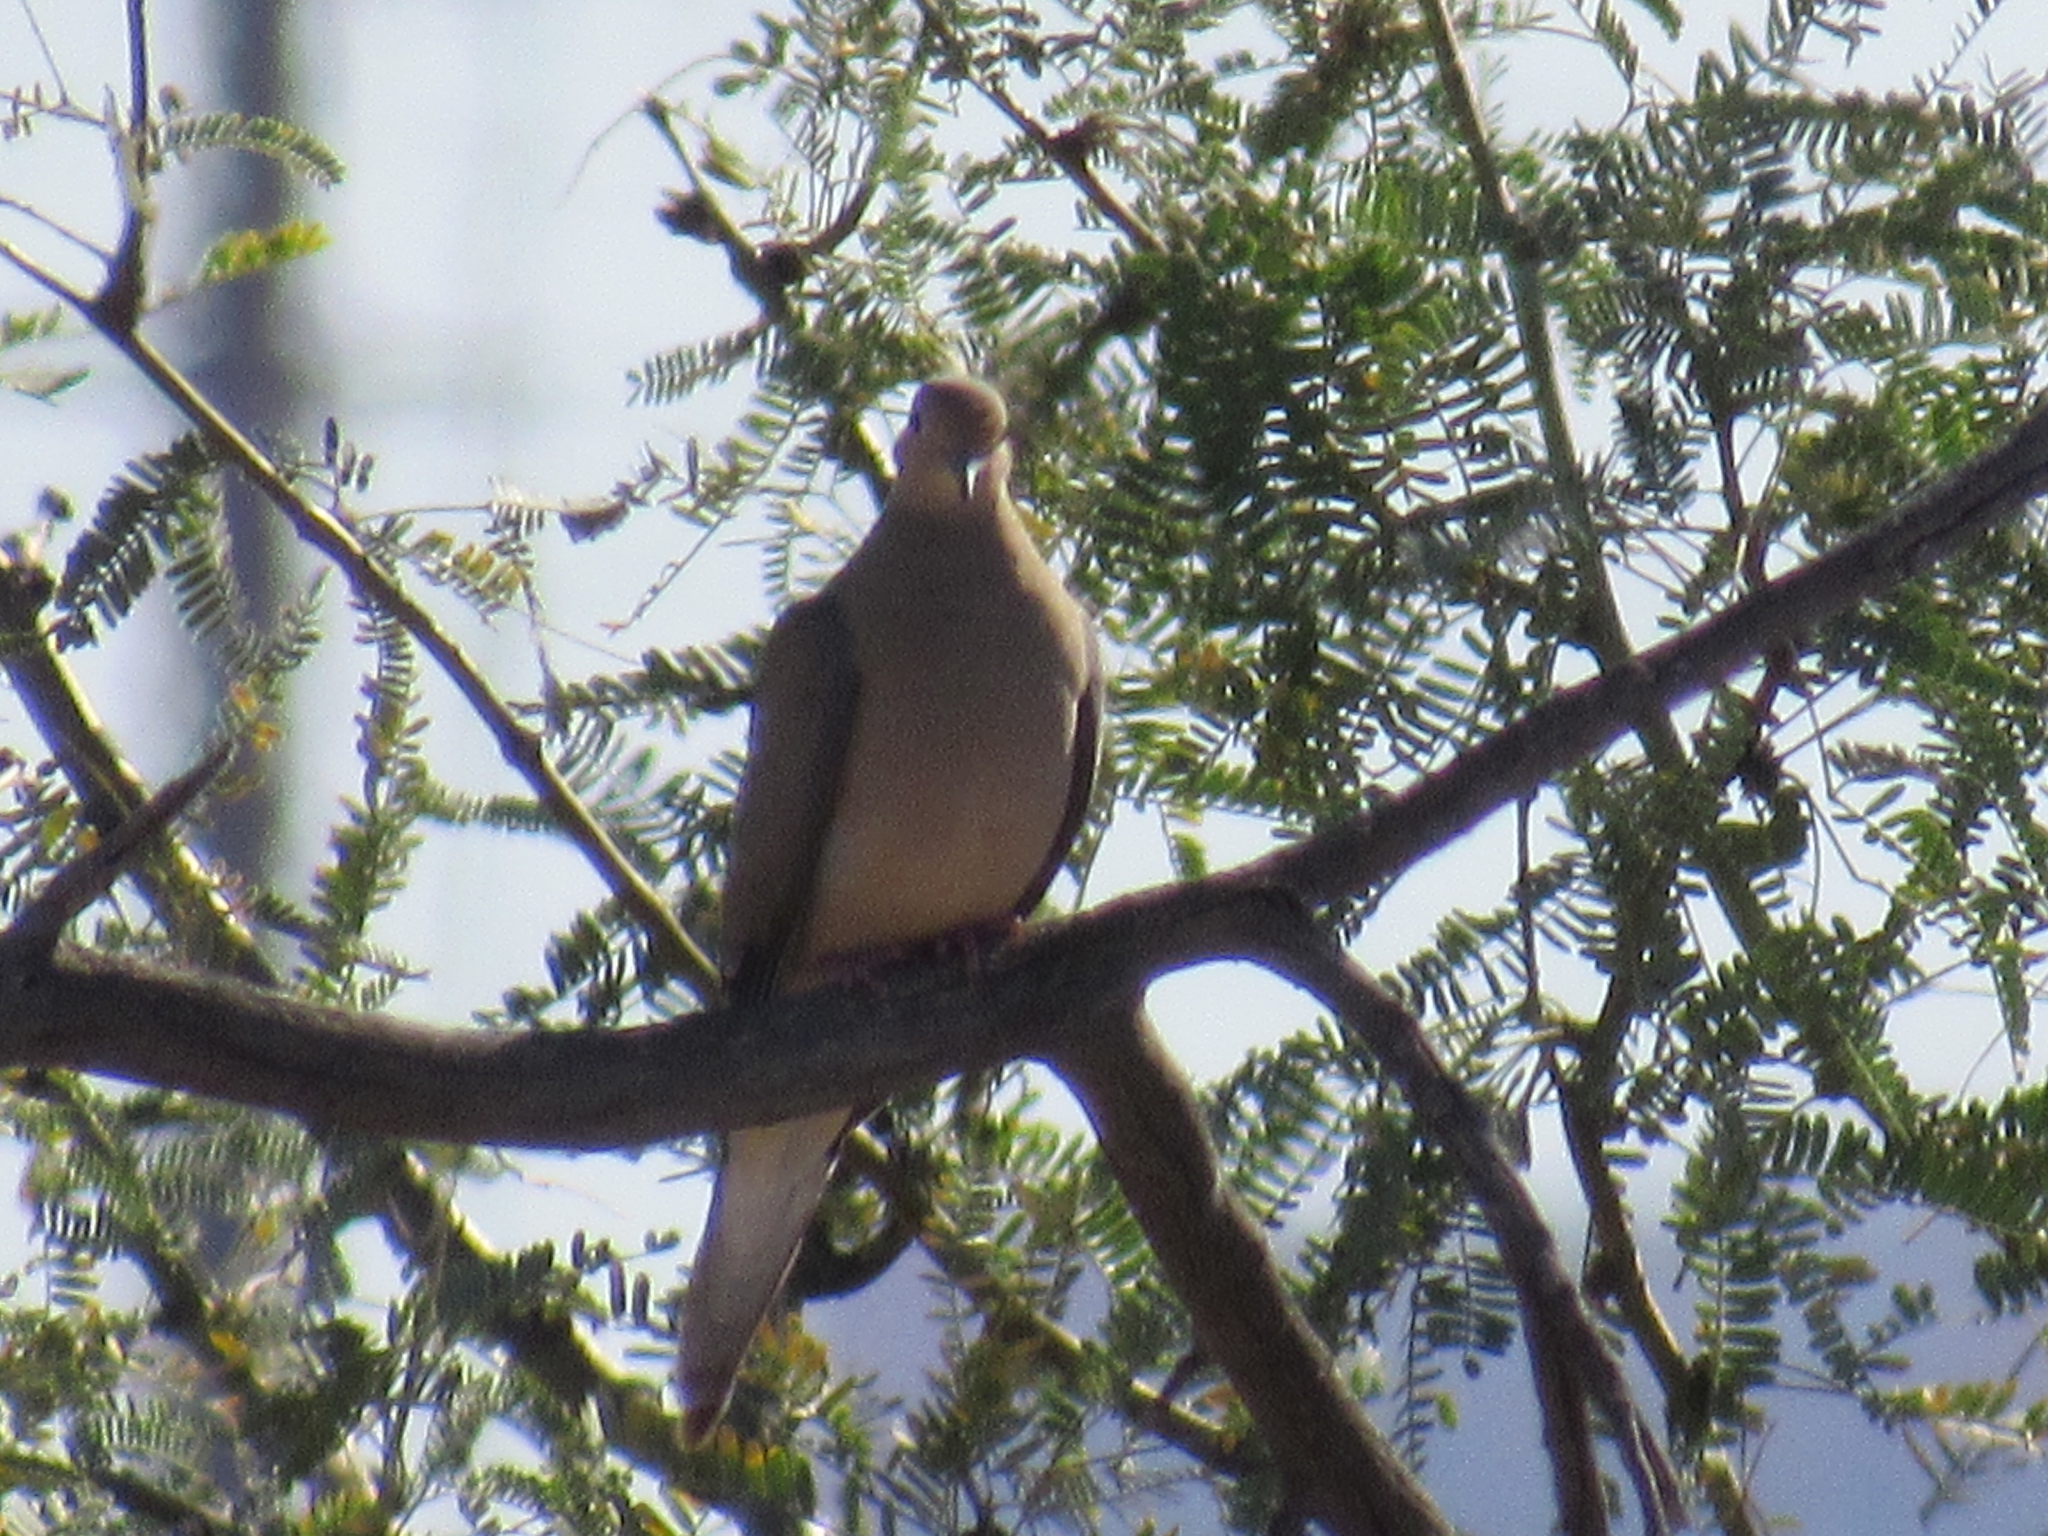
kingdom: Animalia
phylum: Chordata
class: Aves
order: Columbiformes
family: Columbidae
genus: Zenaida
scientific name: Zenaida macroura
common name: Mourning dove
